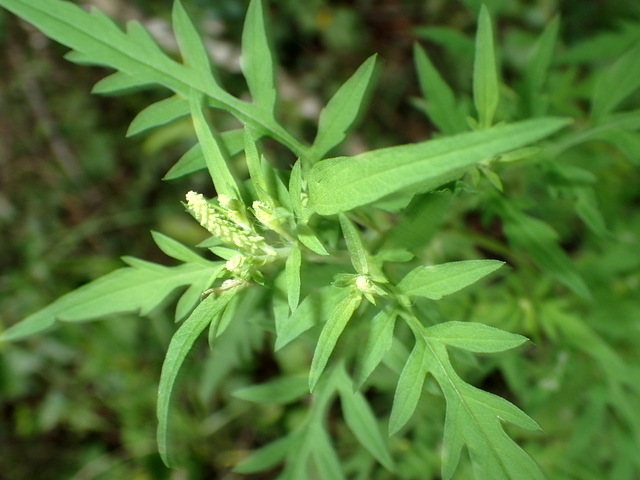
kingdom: Plantae
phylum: Tracheophyta
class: Magnoliopsida
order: Asterales
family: Asteraceae
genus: Ambrosia
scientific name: Ambrosia artemisiifolia
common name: Annual ragweed
